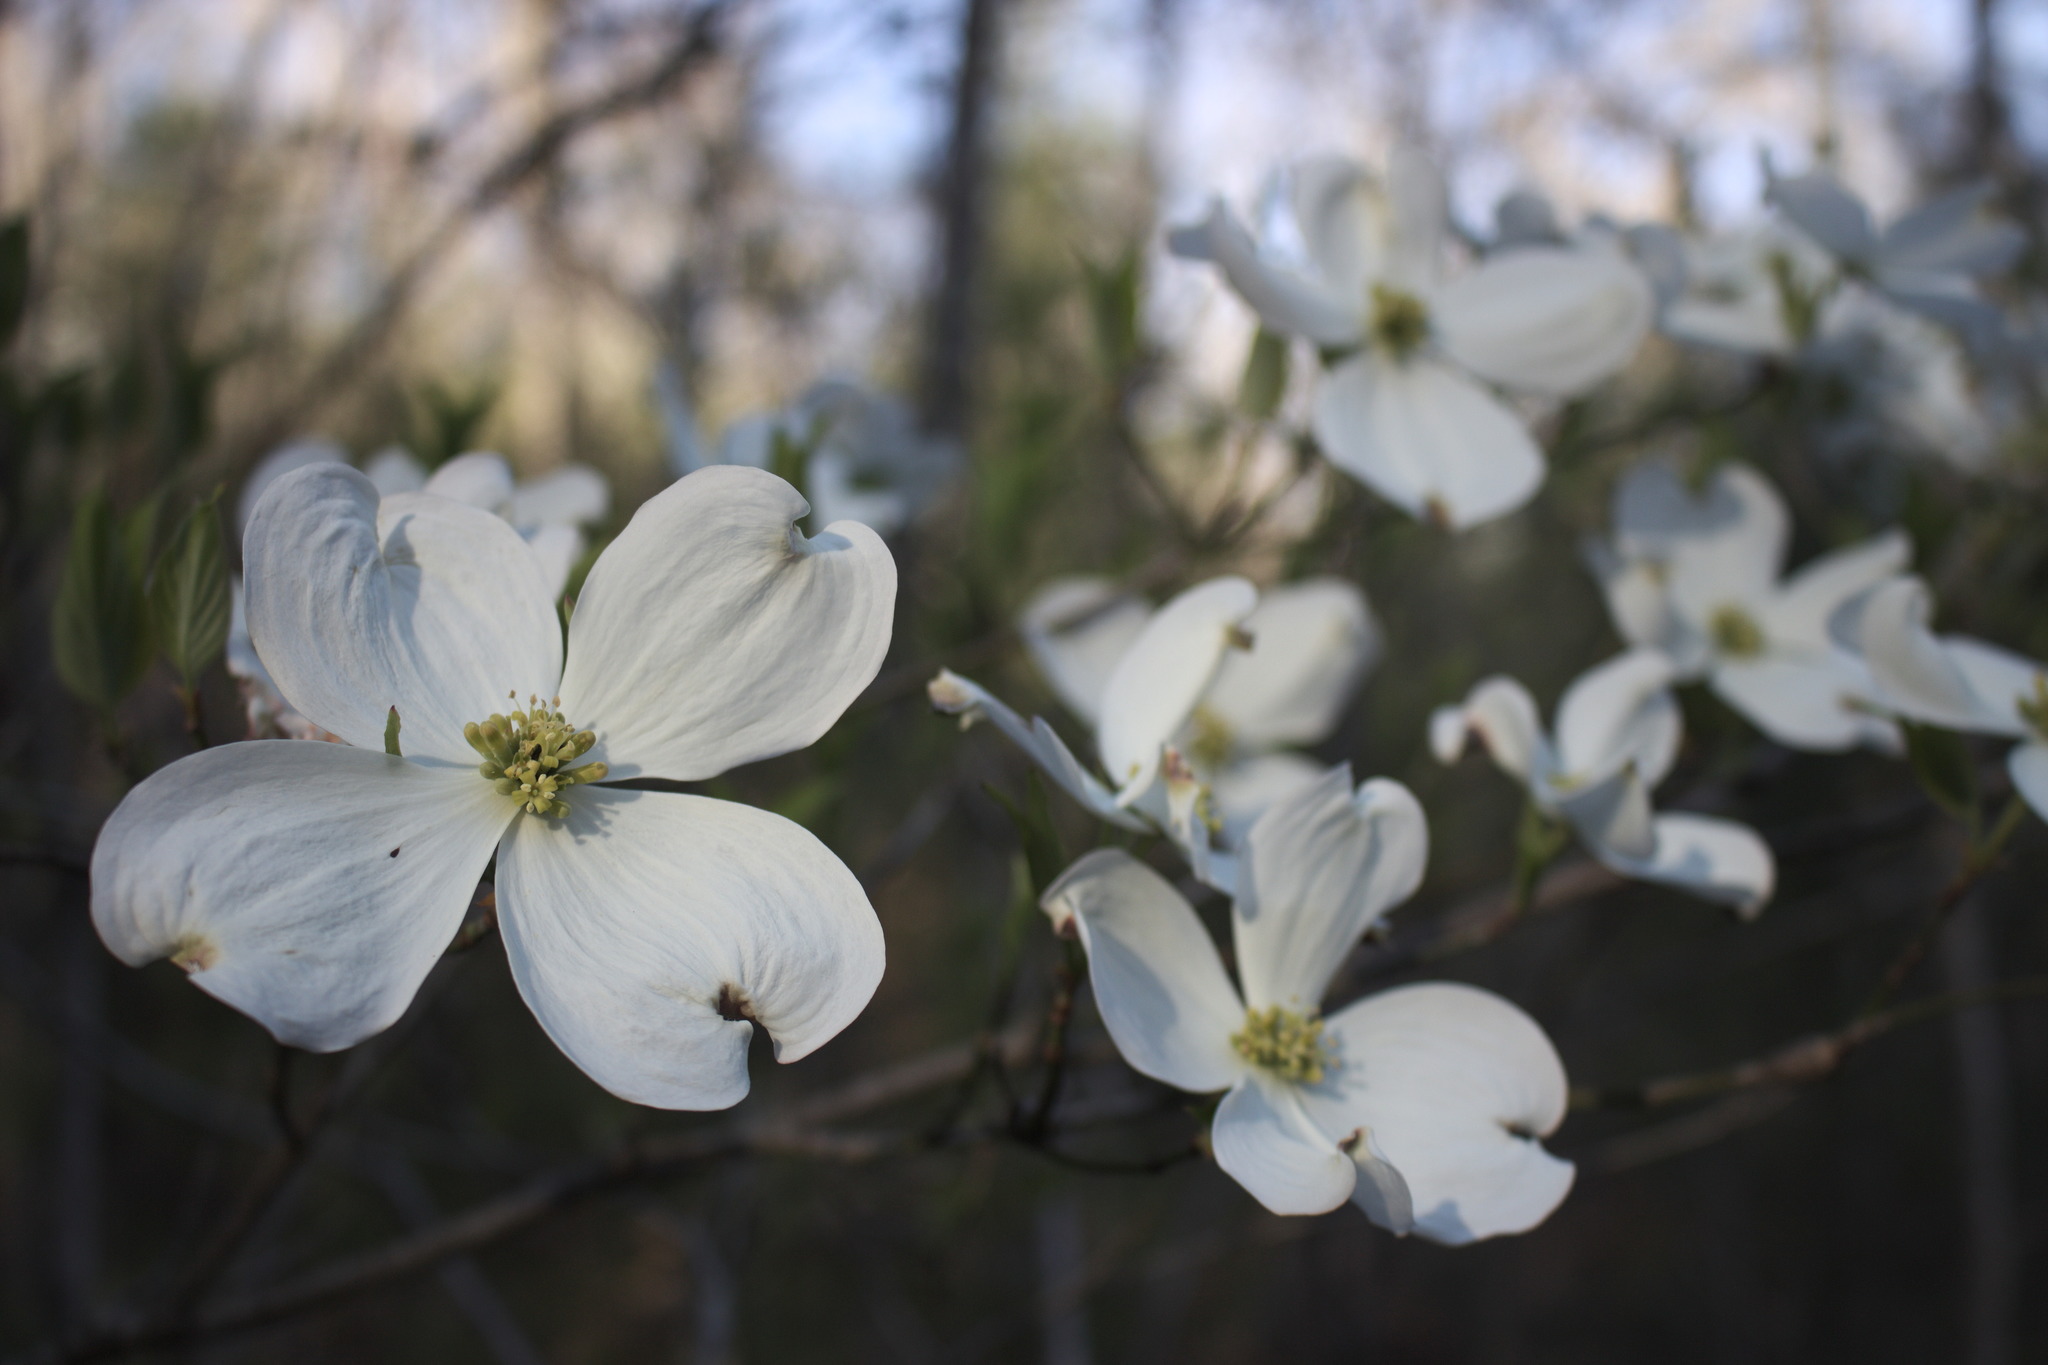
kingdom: Plantae
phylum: Tracheophyta
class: Magnoliopsida
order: Cornales
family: Cornaceae
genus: Cornus
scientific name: Cornus florida
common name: Flowering dogwood
